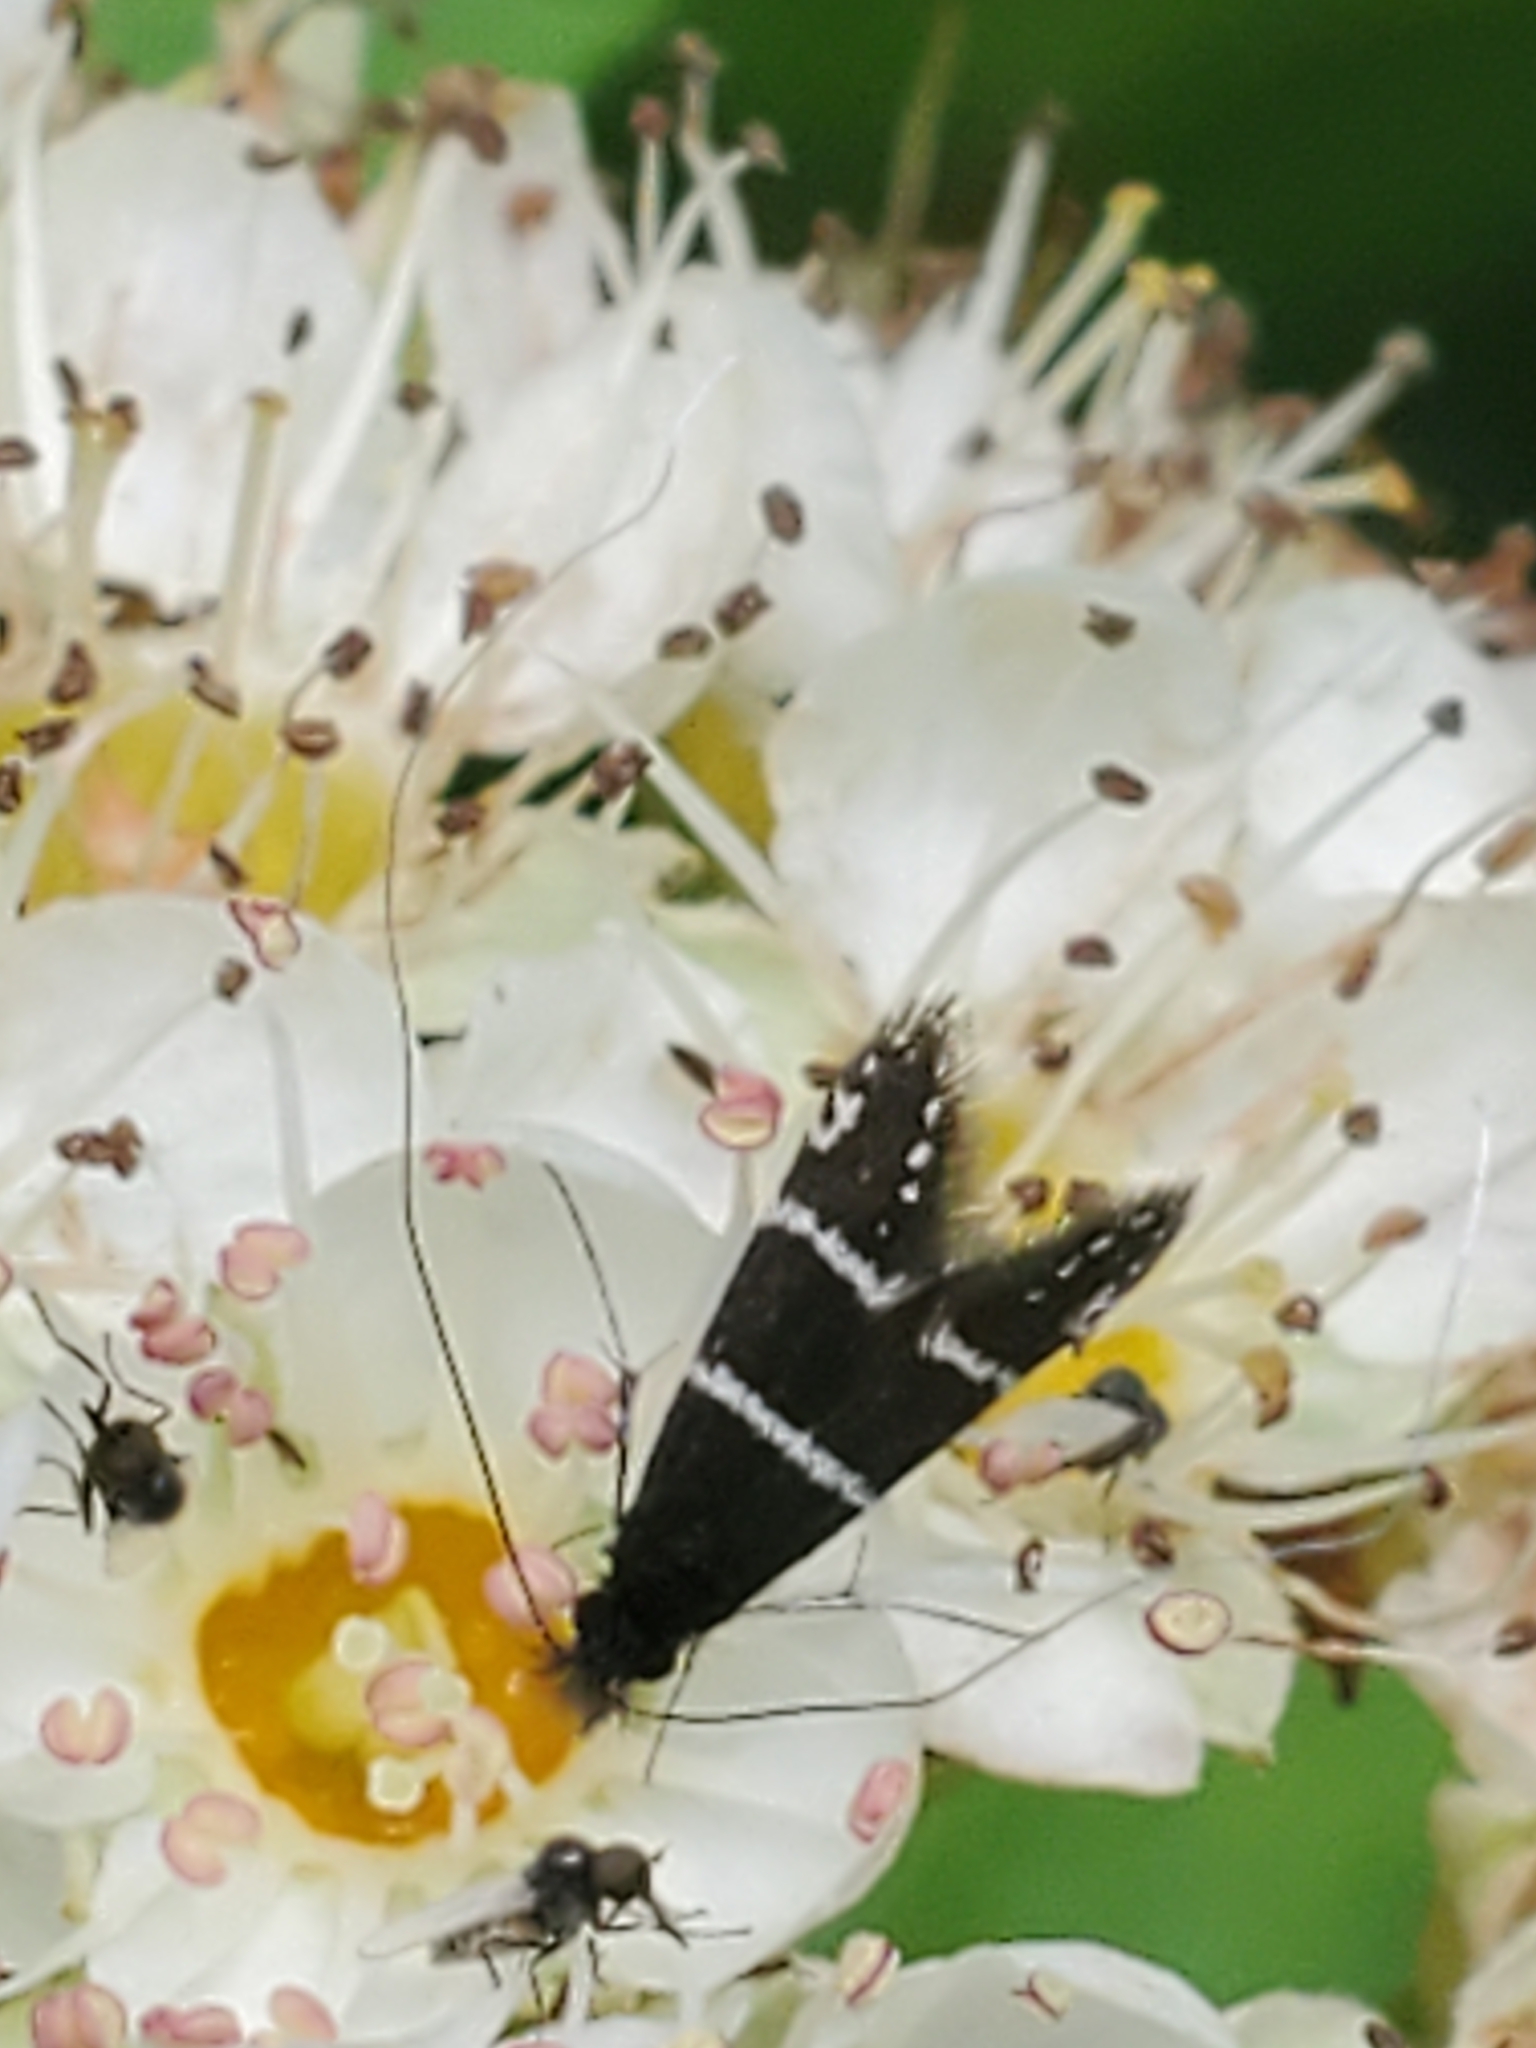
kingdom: Animalia
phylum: Arthropoda
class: Insecta
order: Lepidoptera
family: Adelidae
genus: Adela
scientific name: Adela septentrionella
